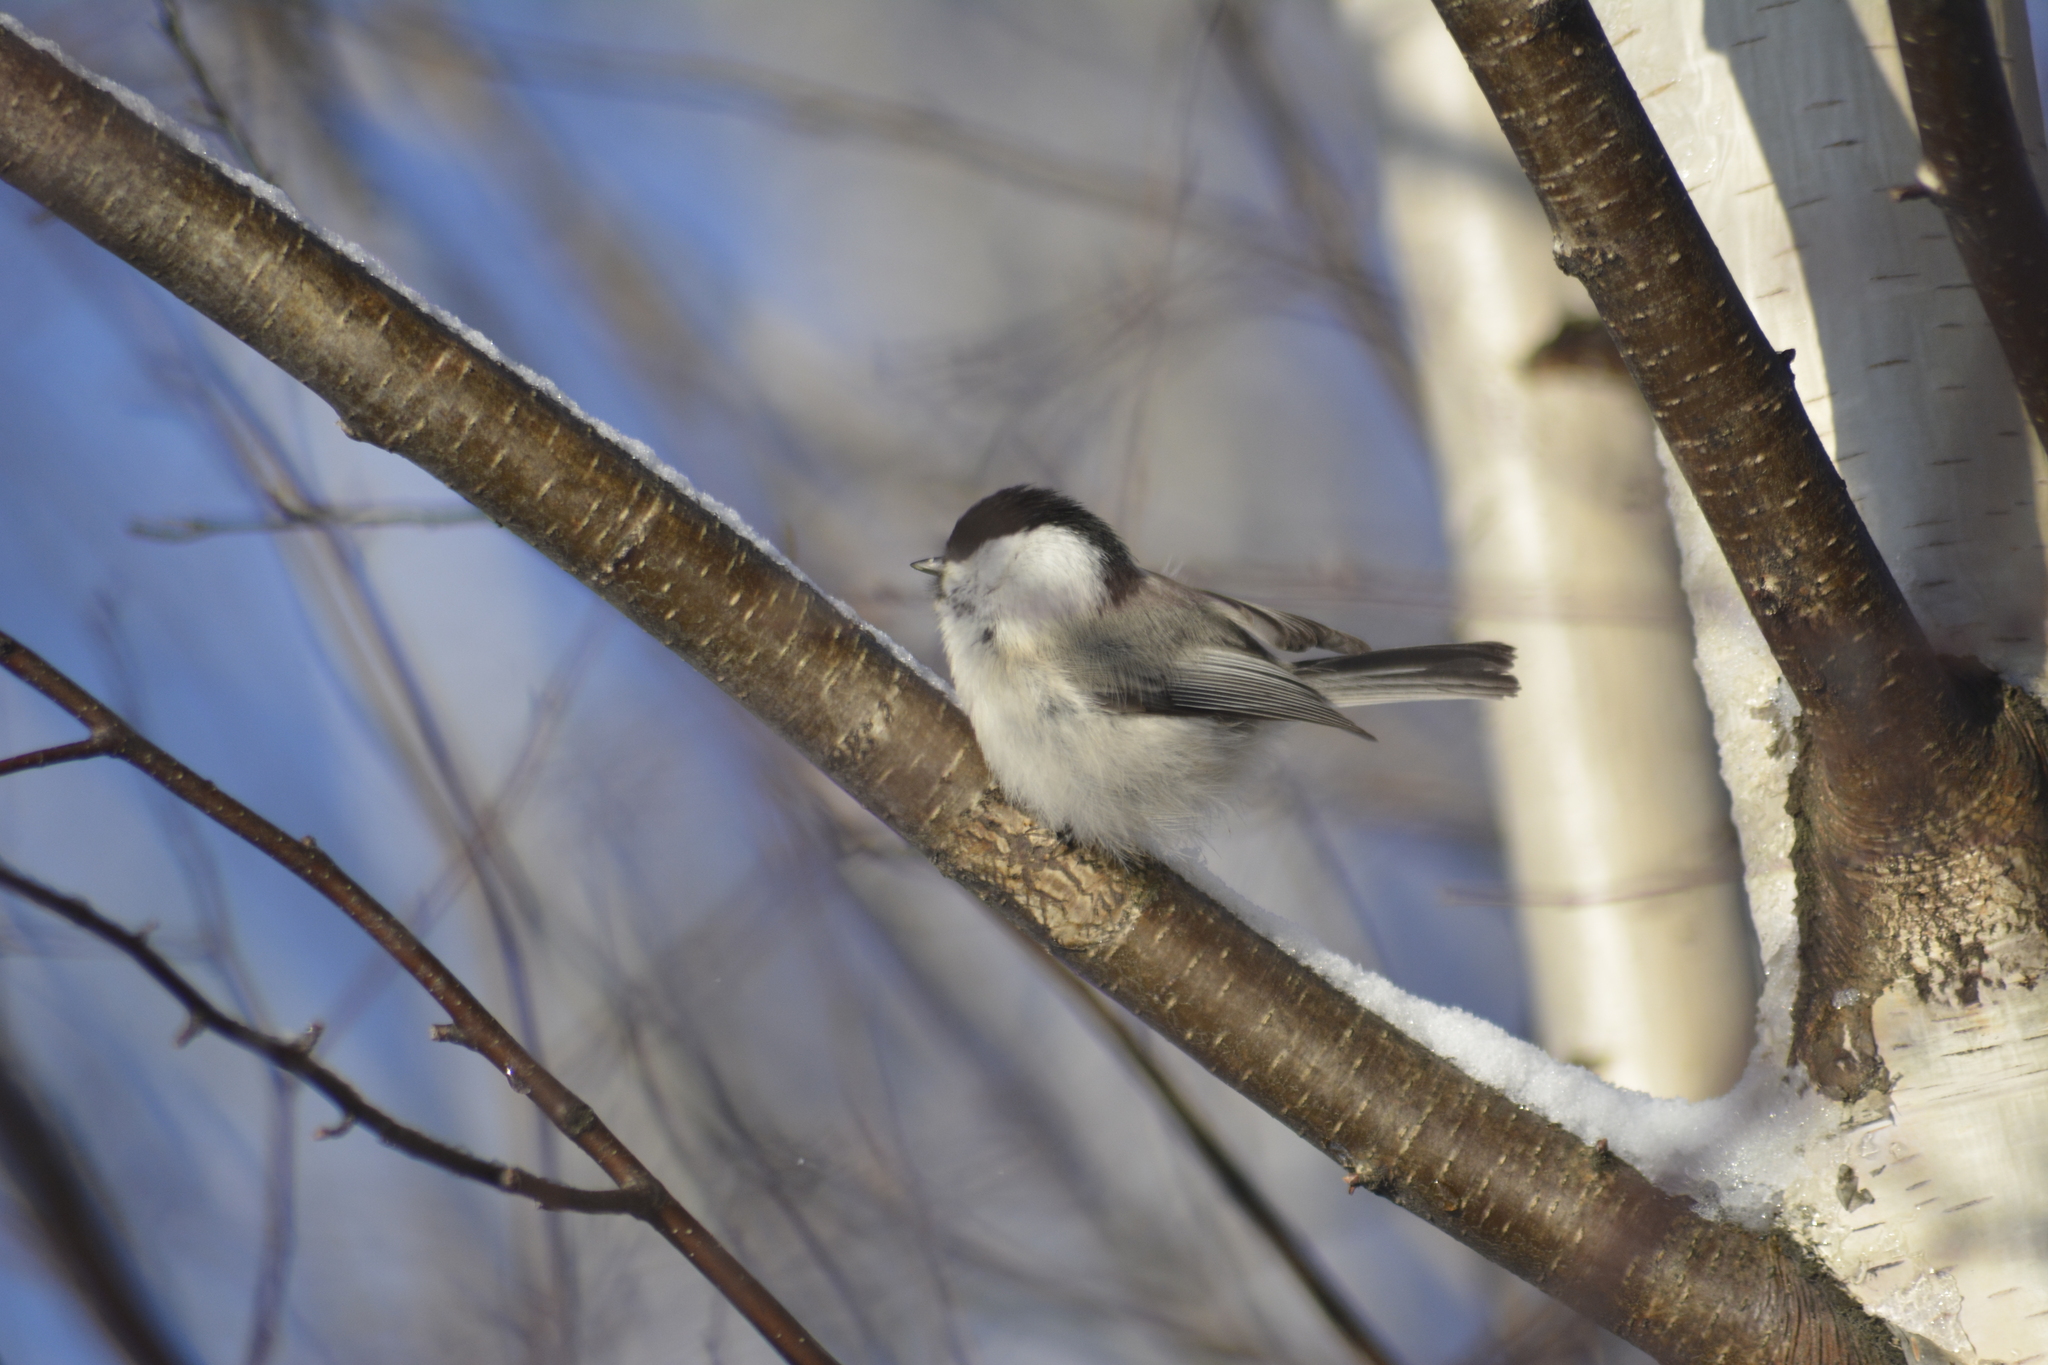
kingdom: Animalia
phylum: Chordata
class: Aves
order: Passeriformes
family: Paridae
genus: Poecile
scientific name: Poecile montanus
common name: Willow tit
